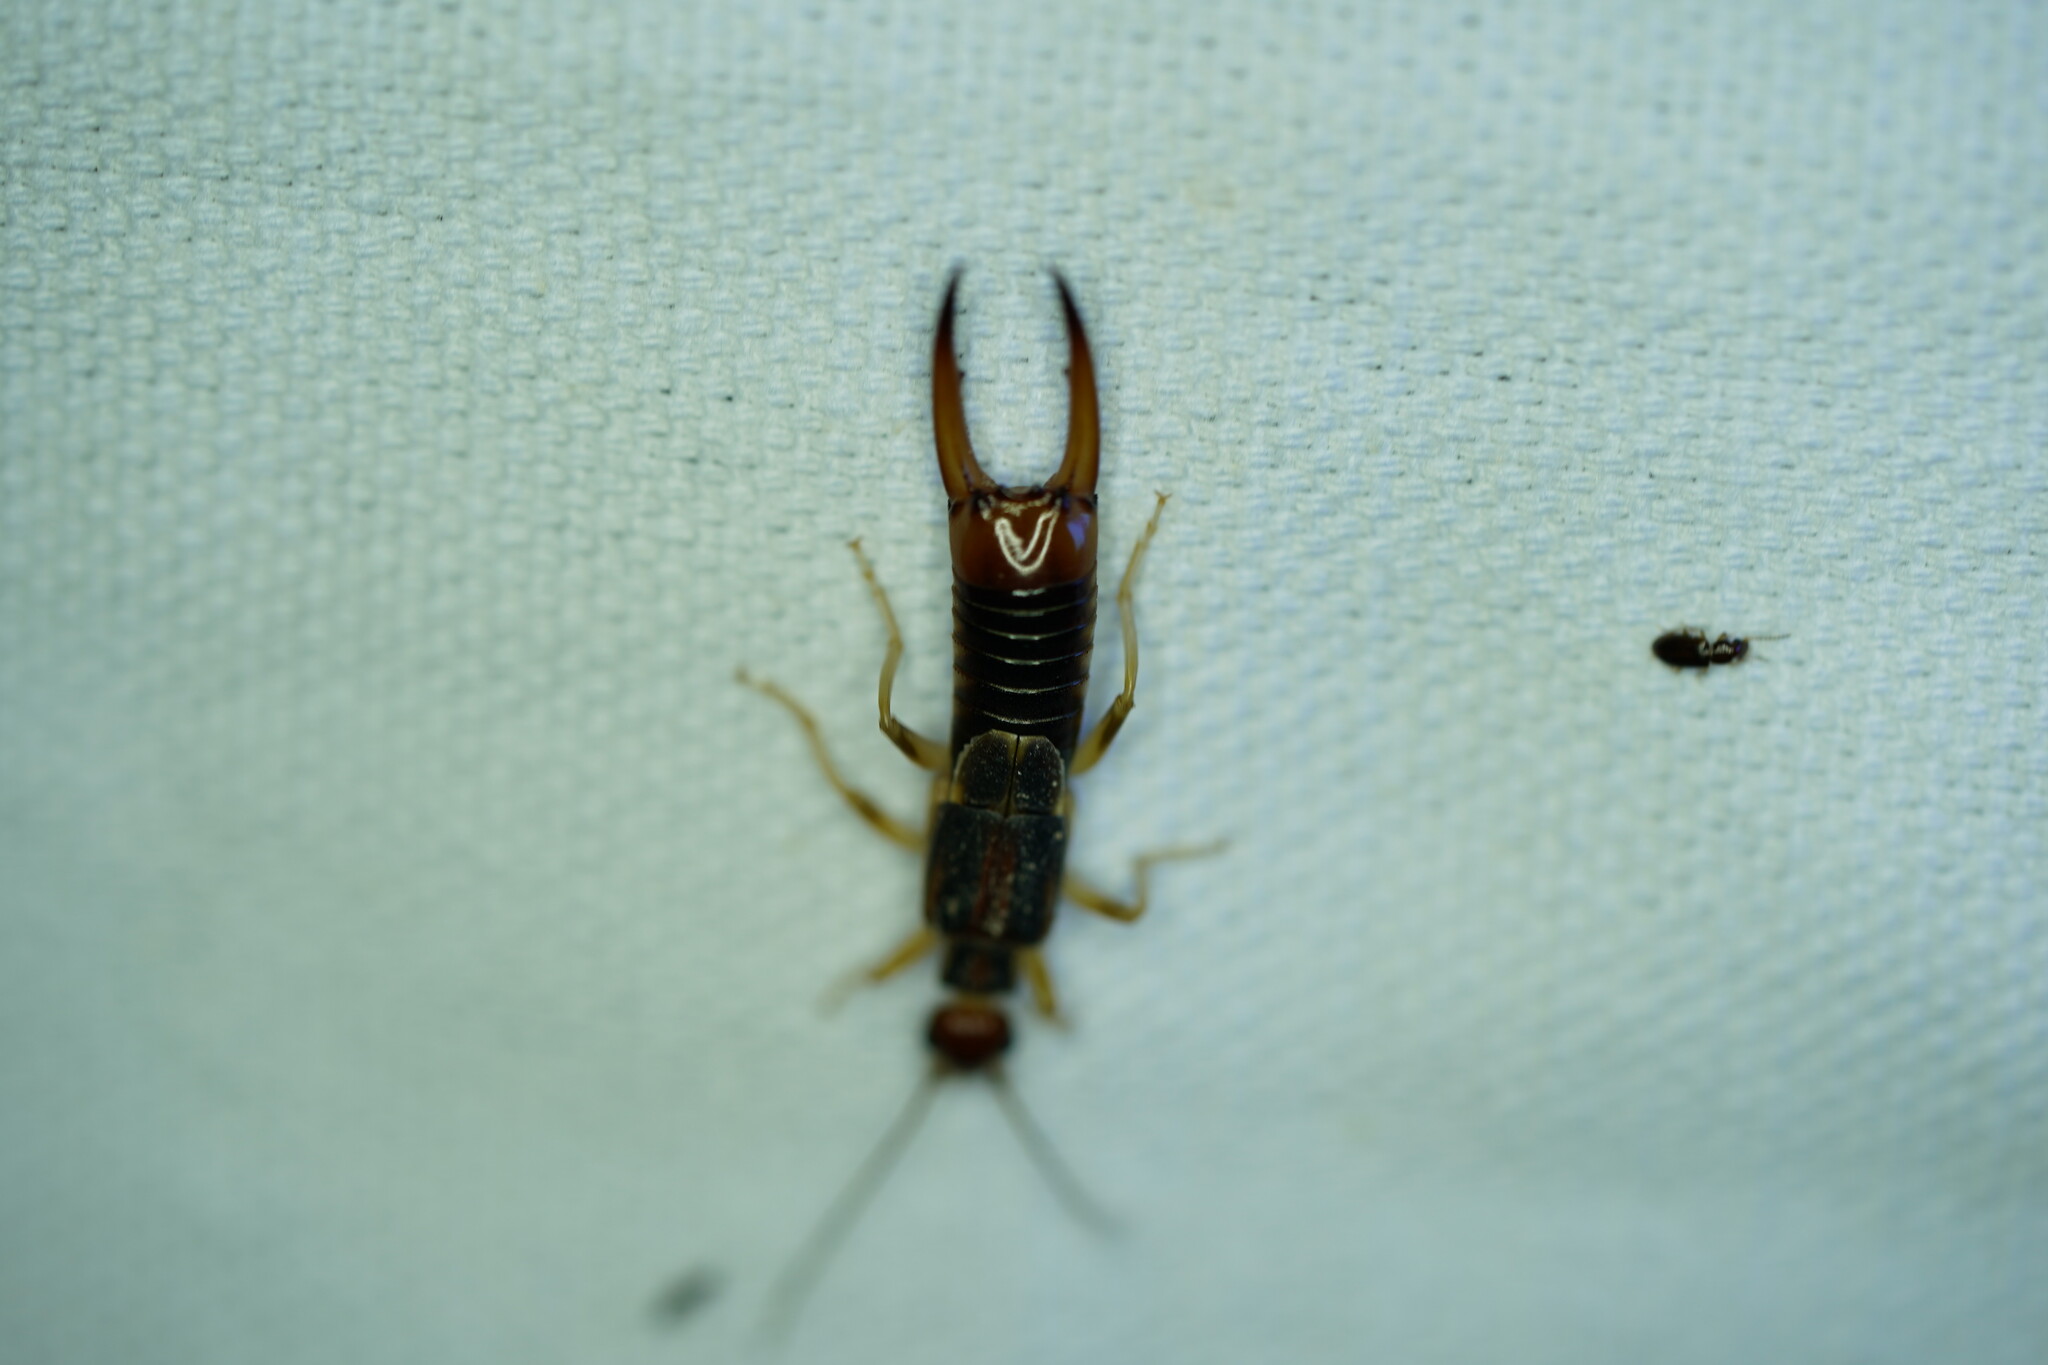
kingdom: Animalia
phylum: Arthropoda
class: Insecta
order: Dermaptera
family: Labiduridae
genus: Labidura
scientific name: Labidura riparia
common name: Striped earwig
